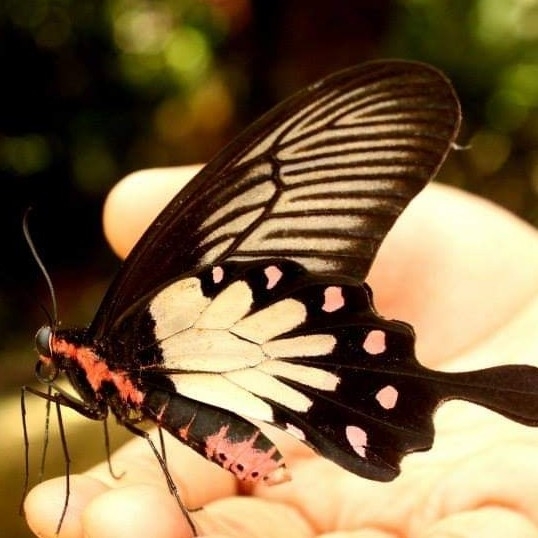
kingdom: Animalia
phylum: Arthropoda
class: Insecta
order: Lepidoptera
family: Papilionidae
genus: Pachliopta
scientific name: Pachliopta pandiyana
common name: Malabar rose
